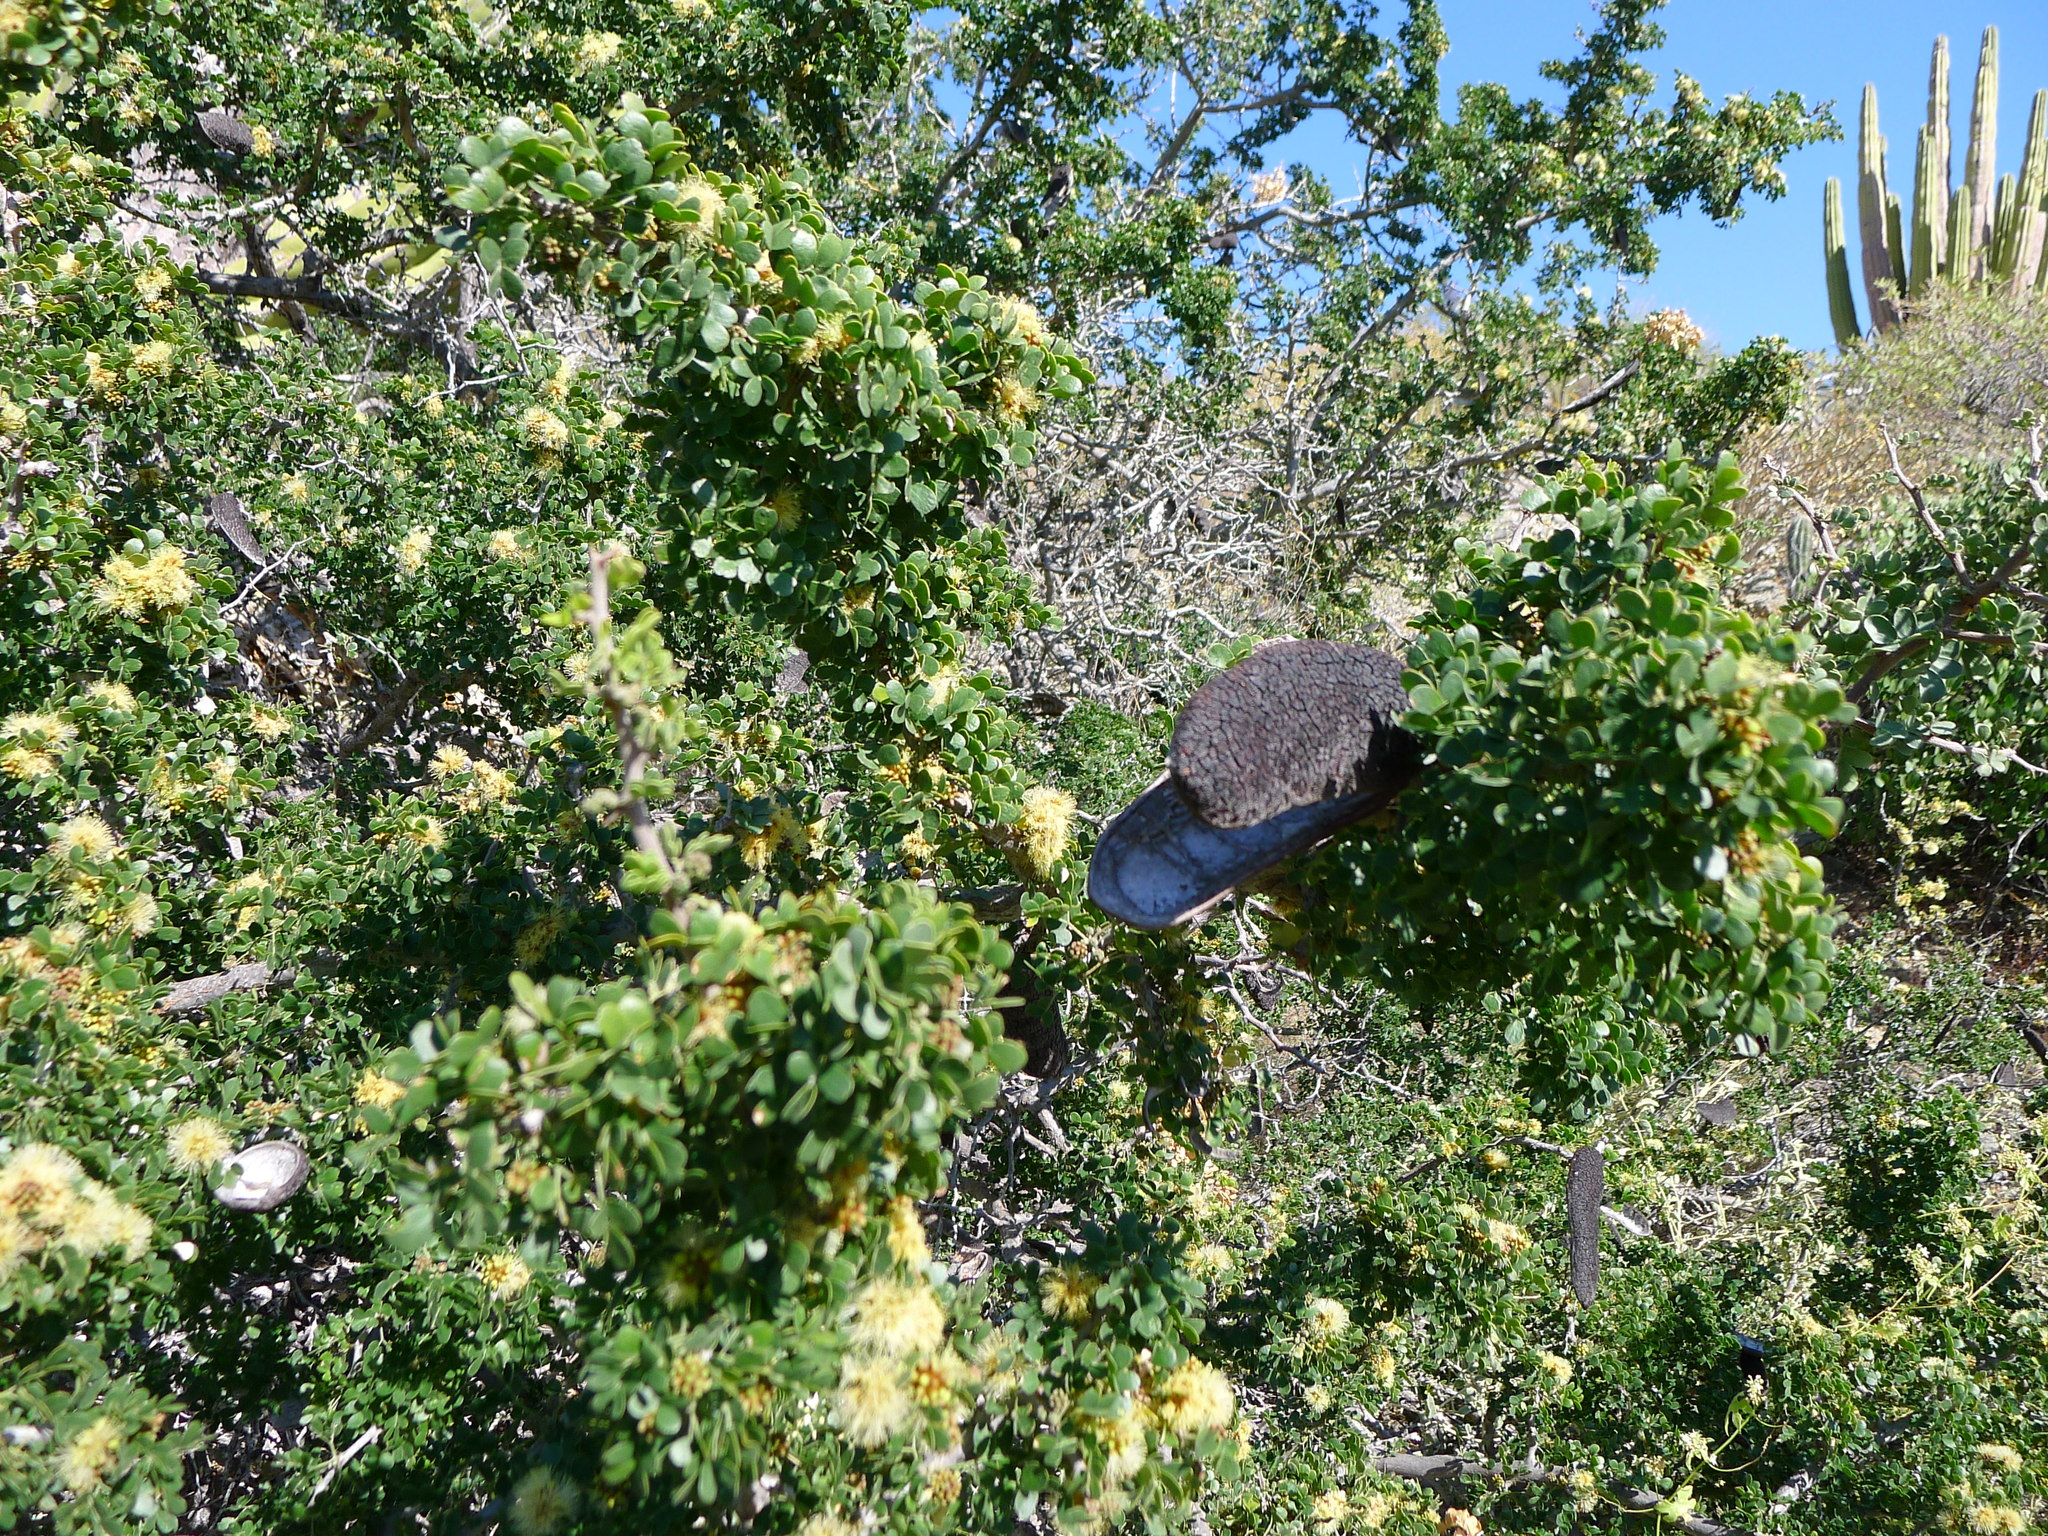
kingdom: Plantae
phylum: Tracheophyta
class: Magnoliopsida
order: Fabales
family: Fabaceae
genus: Ebenopsis
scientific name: Ebenopsis confinis
